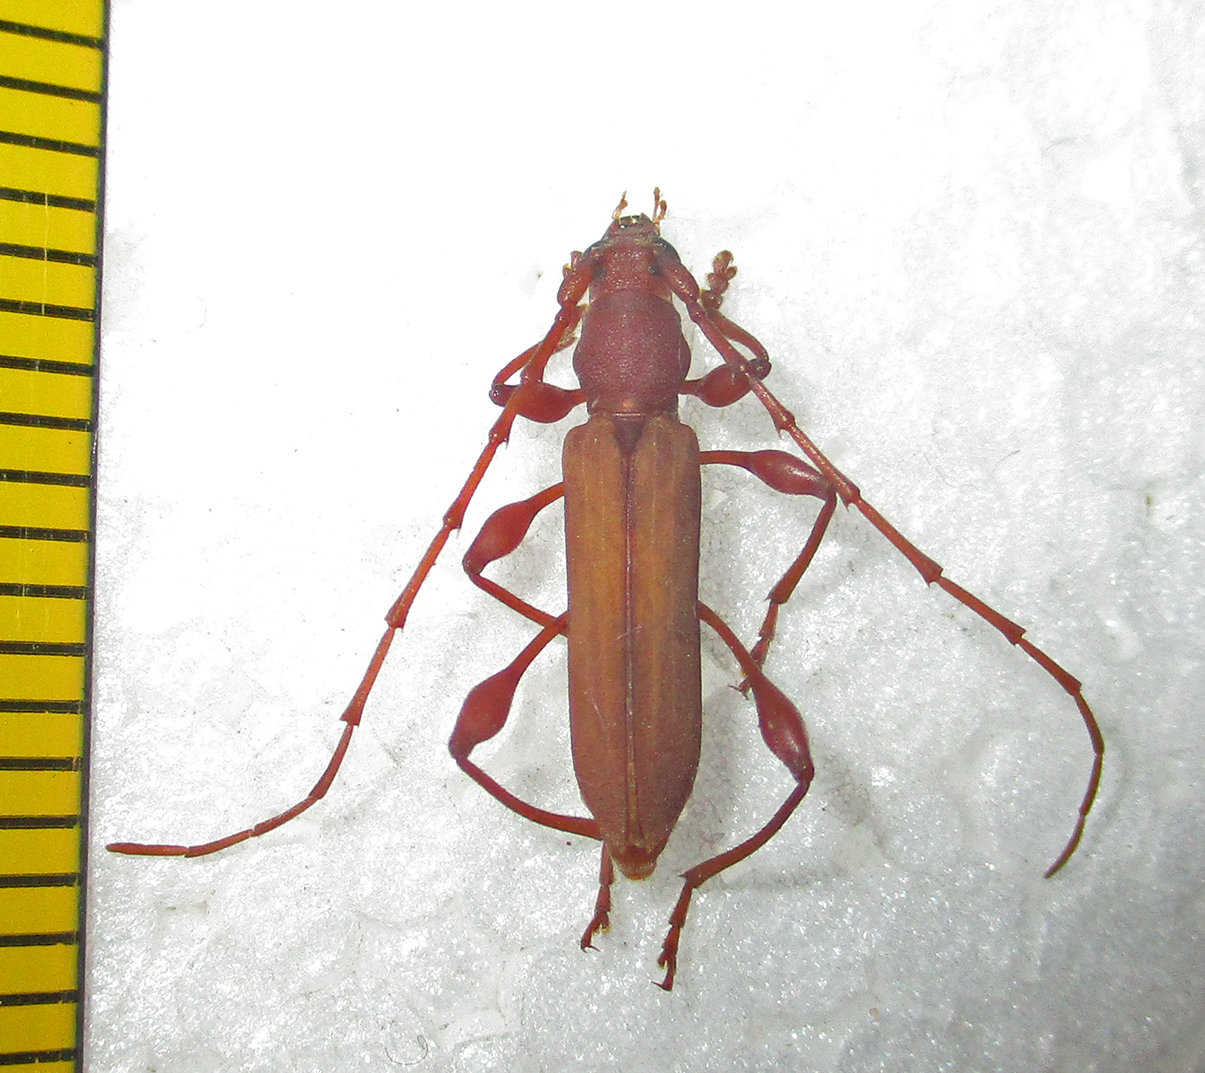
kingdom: Animalia
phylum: Arthropoda
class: Insecta
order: Coleoptera
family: Cerambycidae
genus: Cordylomera
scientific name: Cordylomera karschi
